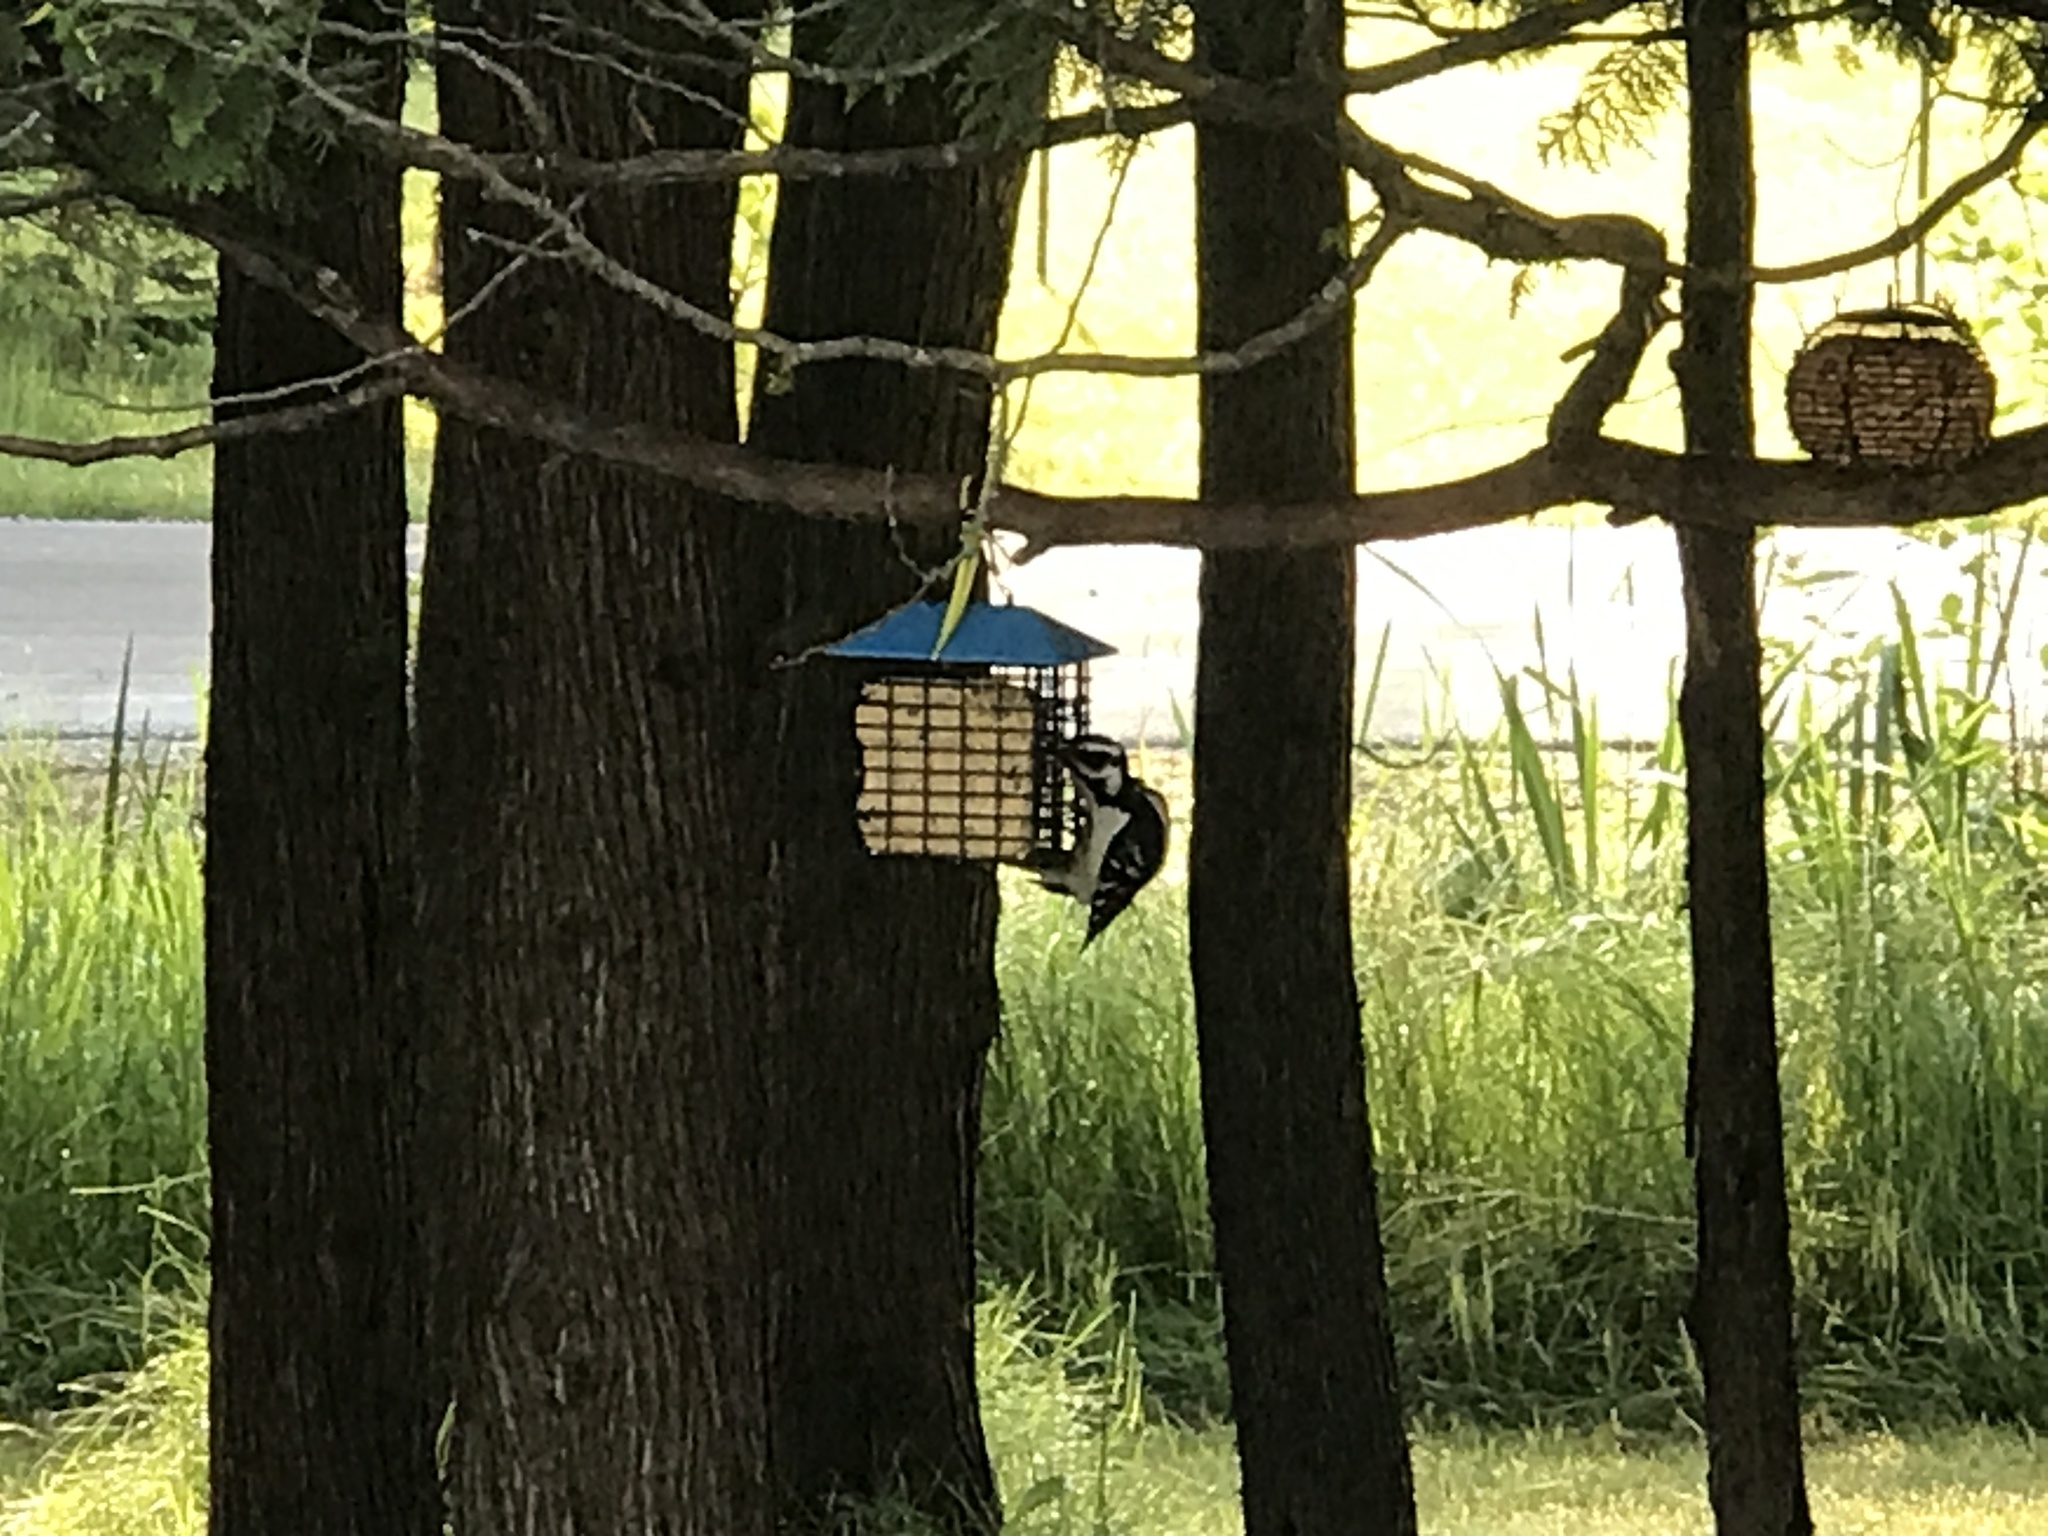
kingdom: Animalia
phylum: Chordata
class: Aves
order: Piciformes
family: Picidae
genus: Leuconotopicus
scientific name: Leuconotopicus villosus
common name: Hairy woodpecker
